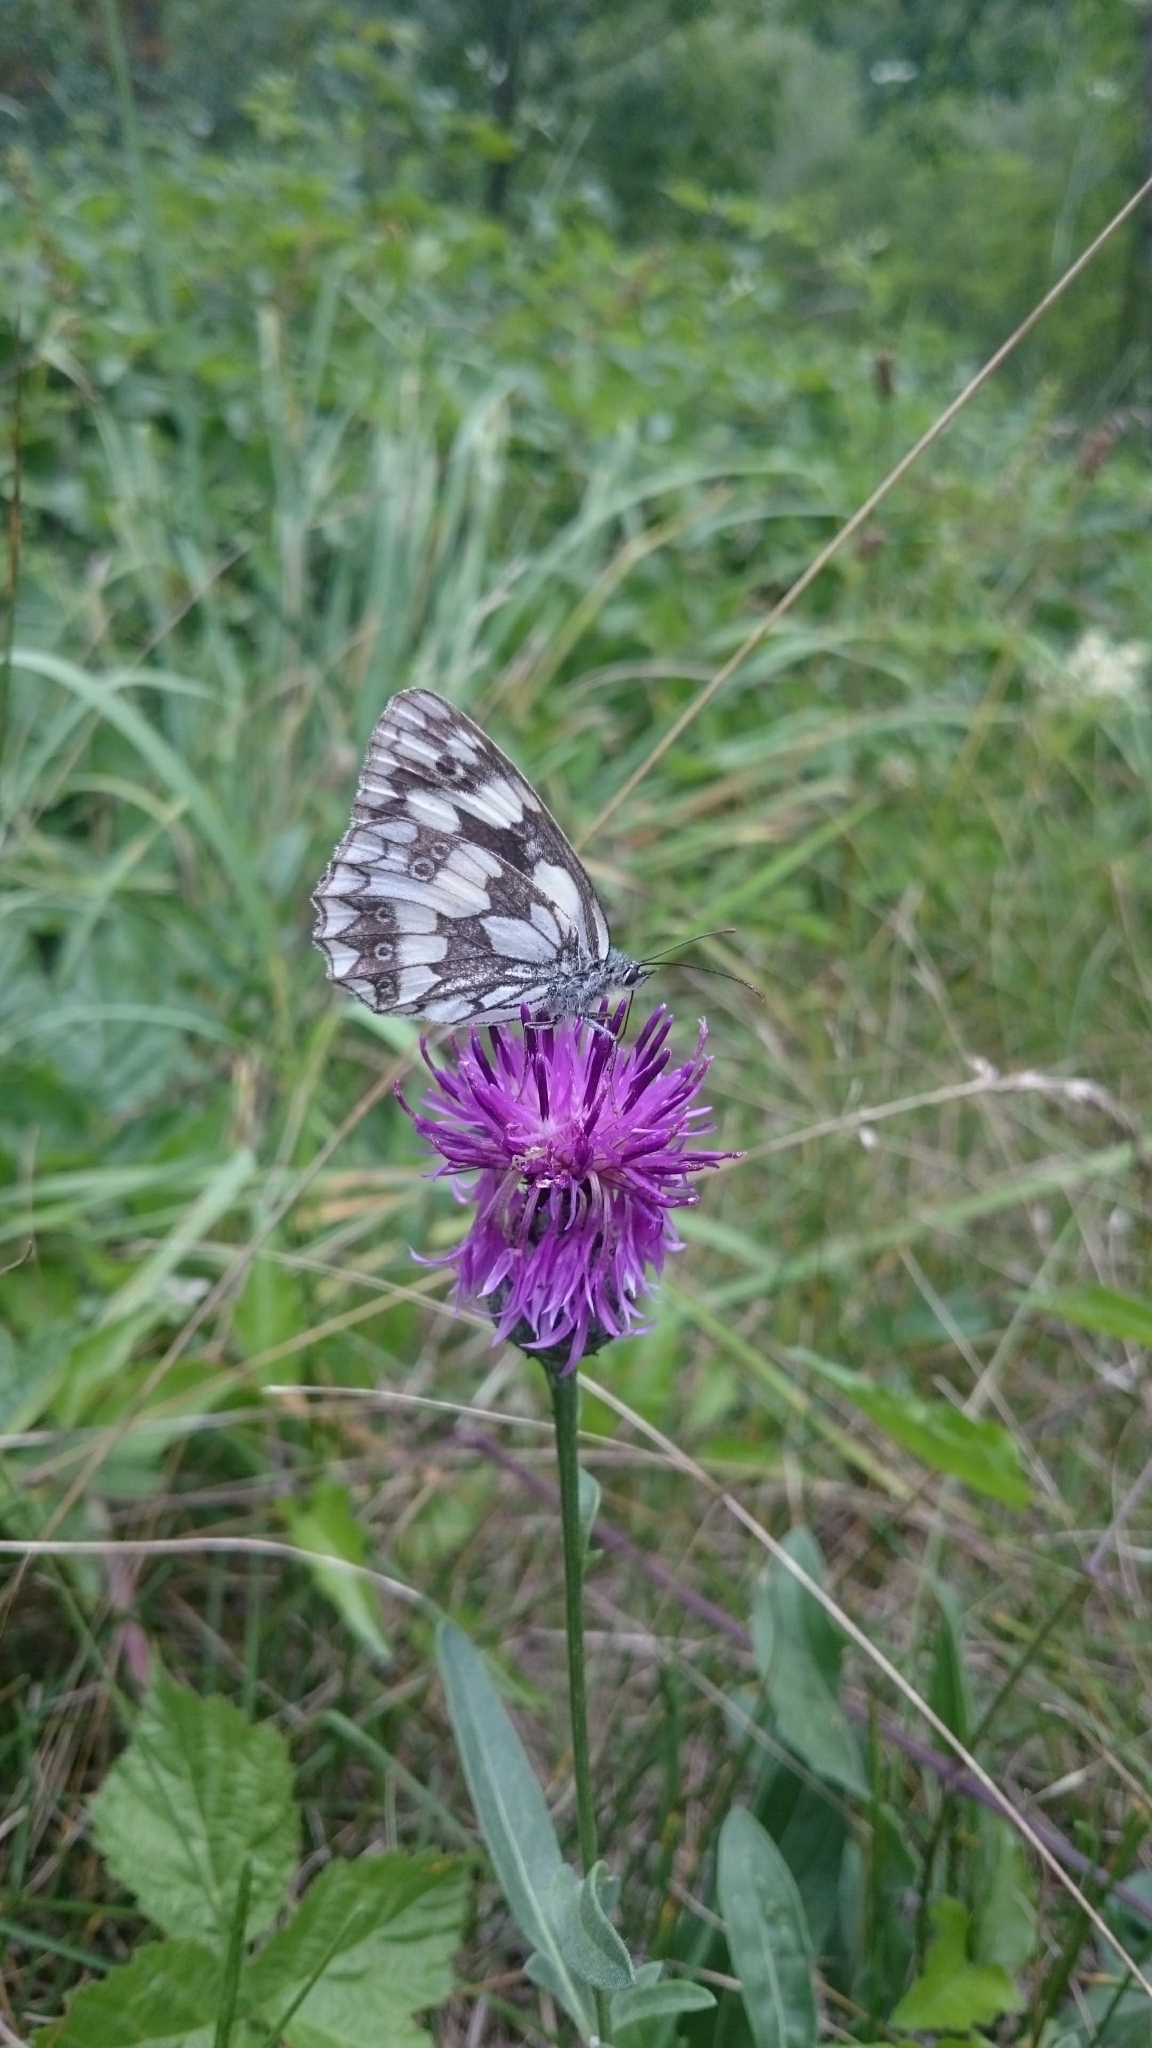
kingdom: Animalia
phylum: Arthropoda
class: Insecta
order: Lepidoptera
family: Nymphalidae
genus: Melanargia
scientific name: Melanargia galathea
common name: Marbled white
